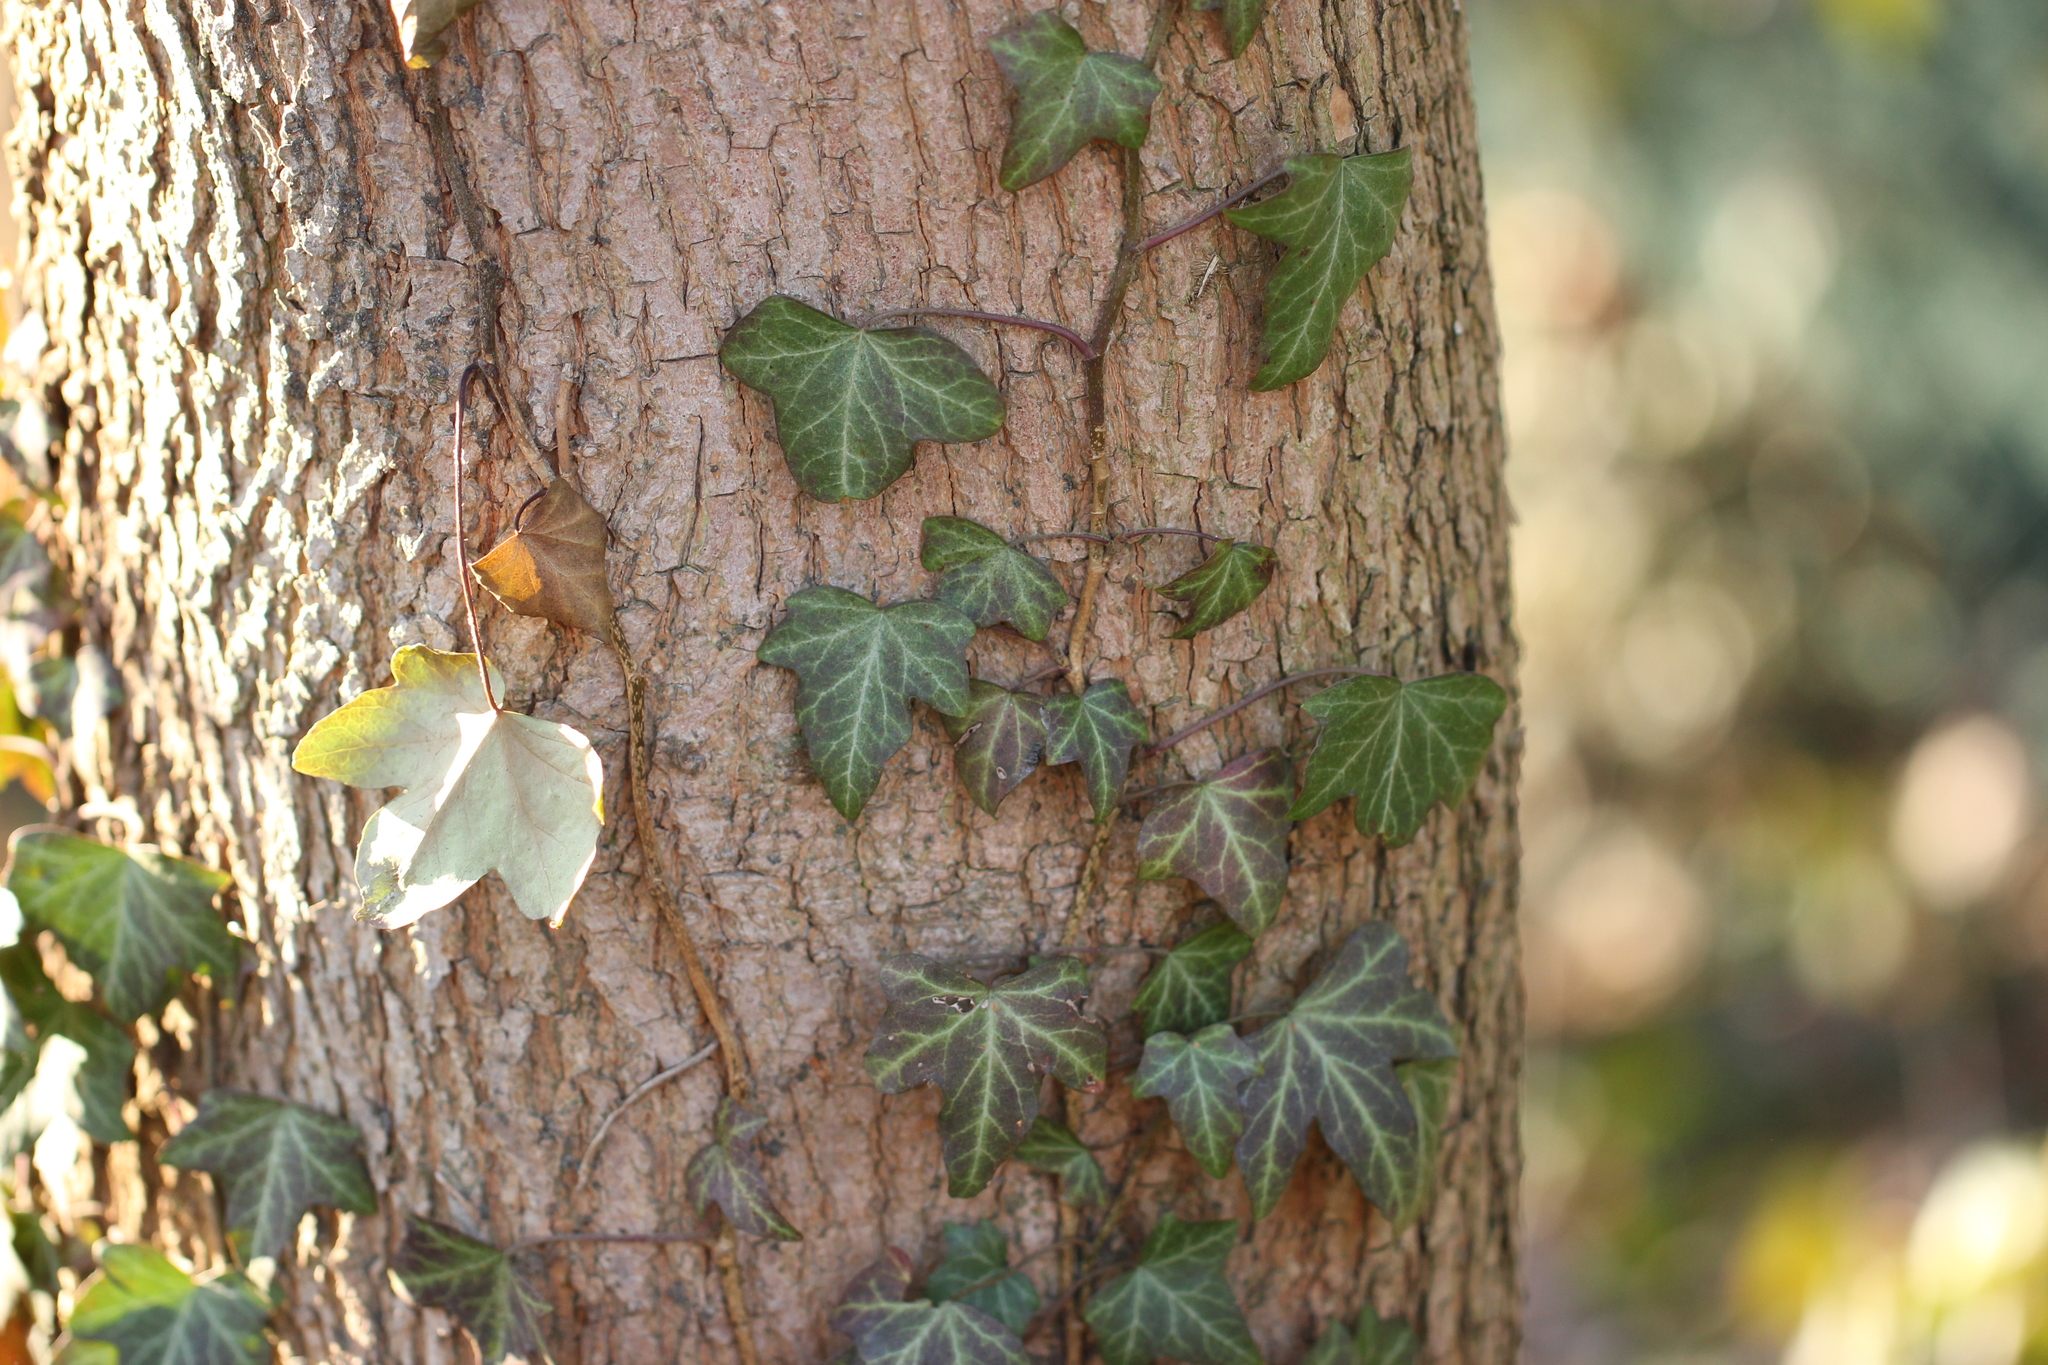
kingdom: Plantae
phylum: Tracheophyta
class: Magnoliopsida
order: Apiales
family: Araliaceae
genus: Hedera
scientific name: Hedera helix
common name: Ivy
